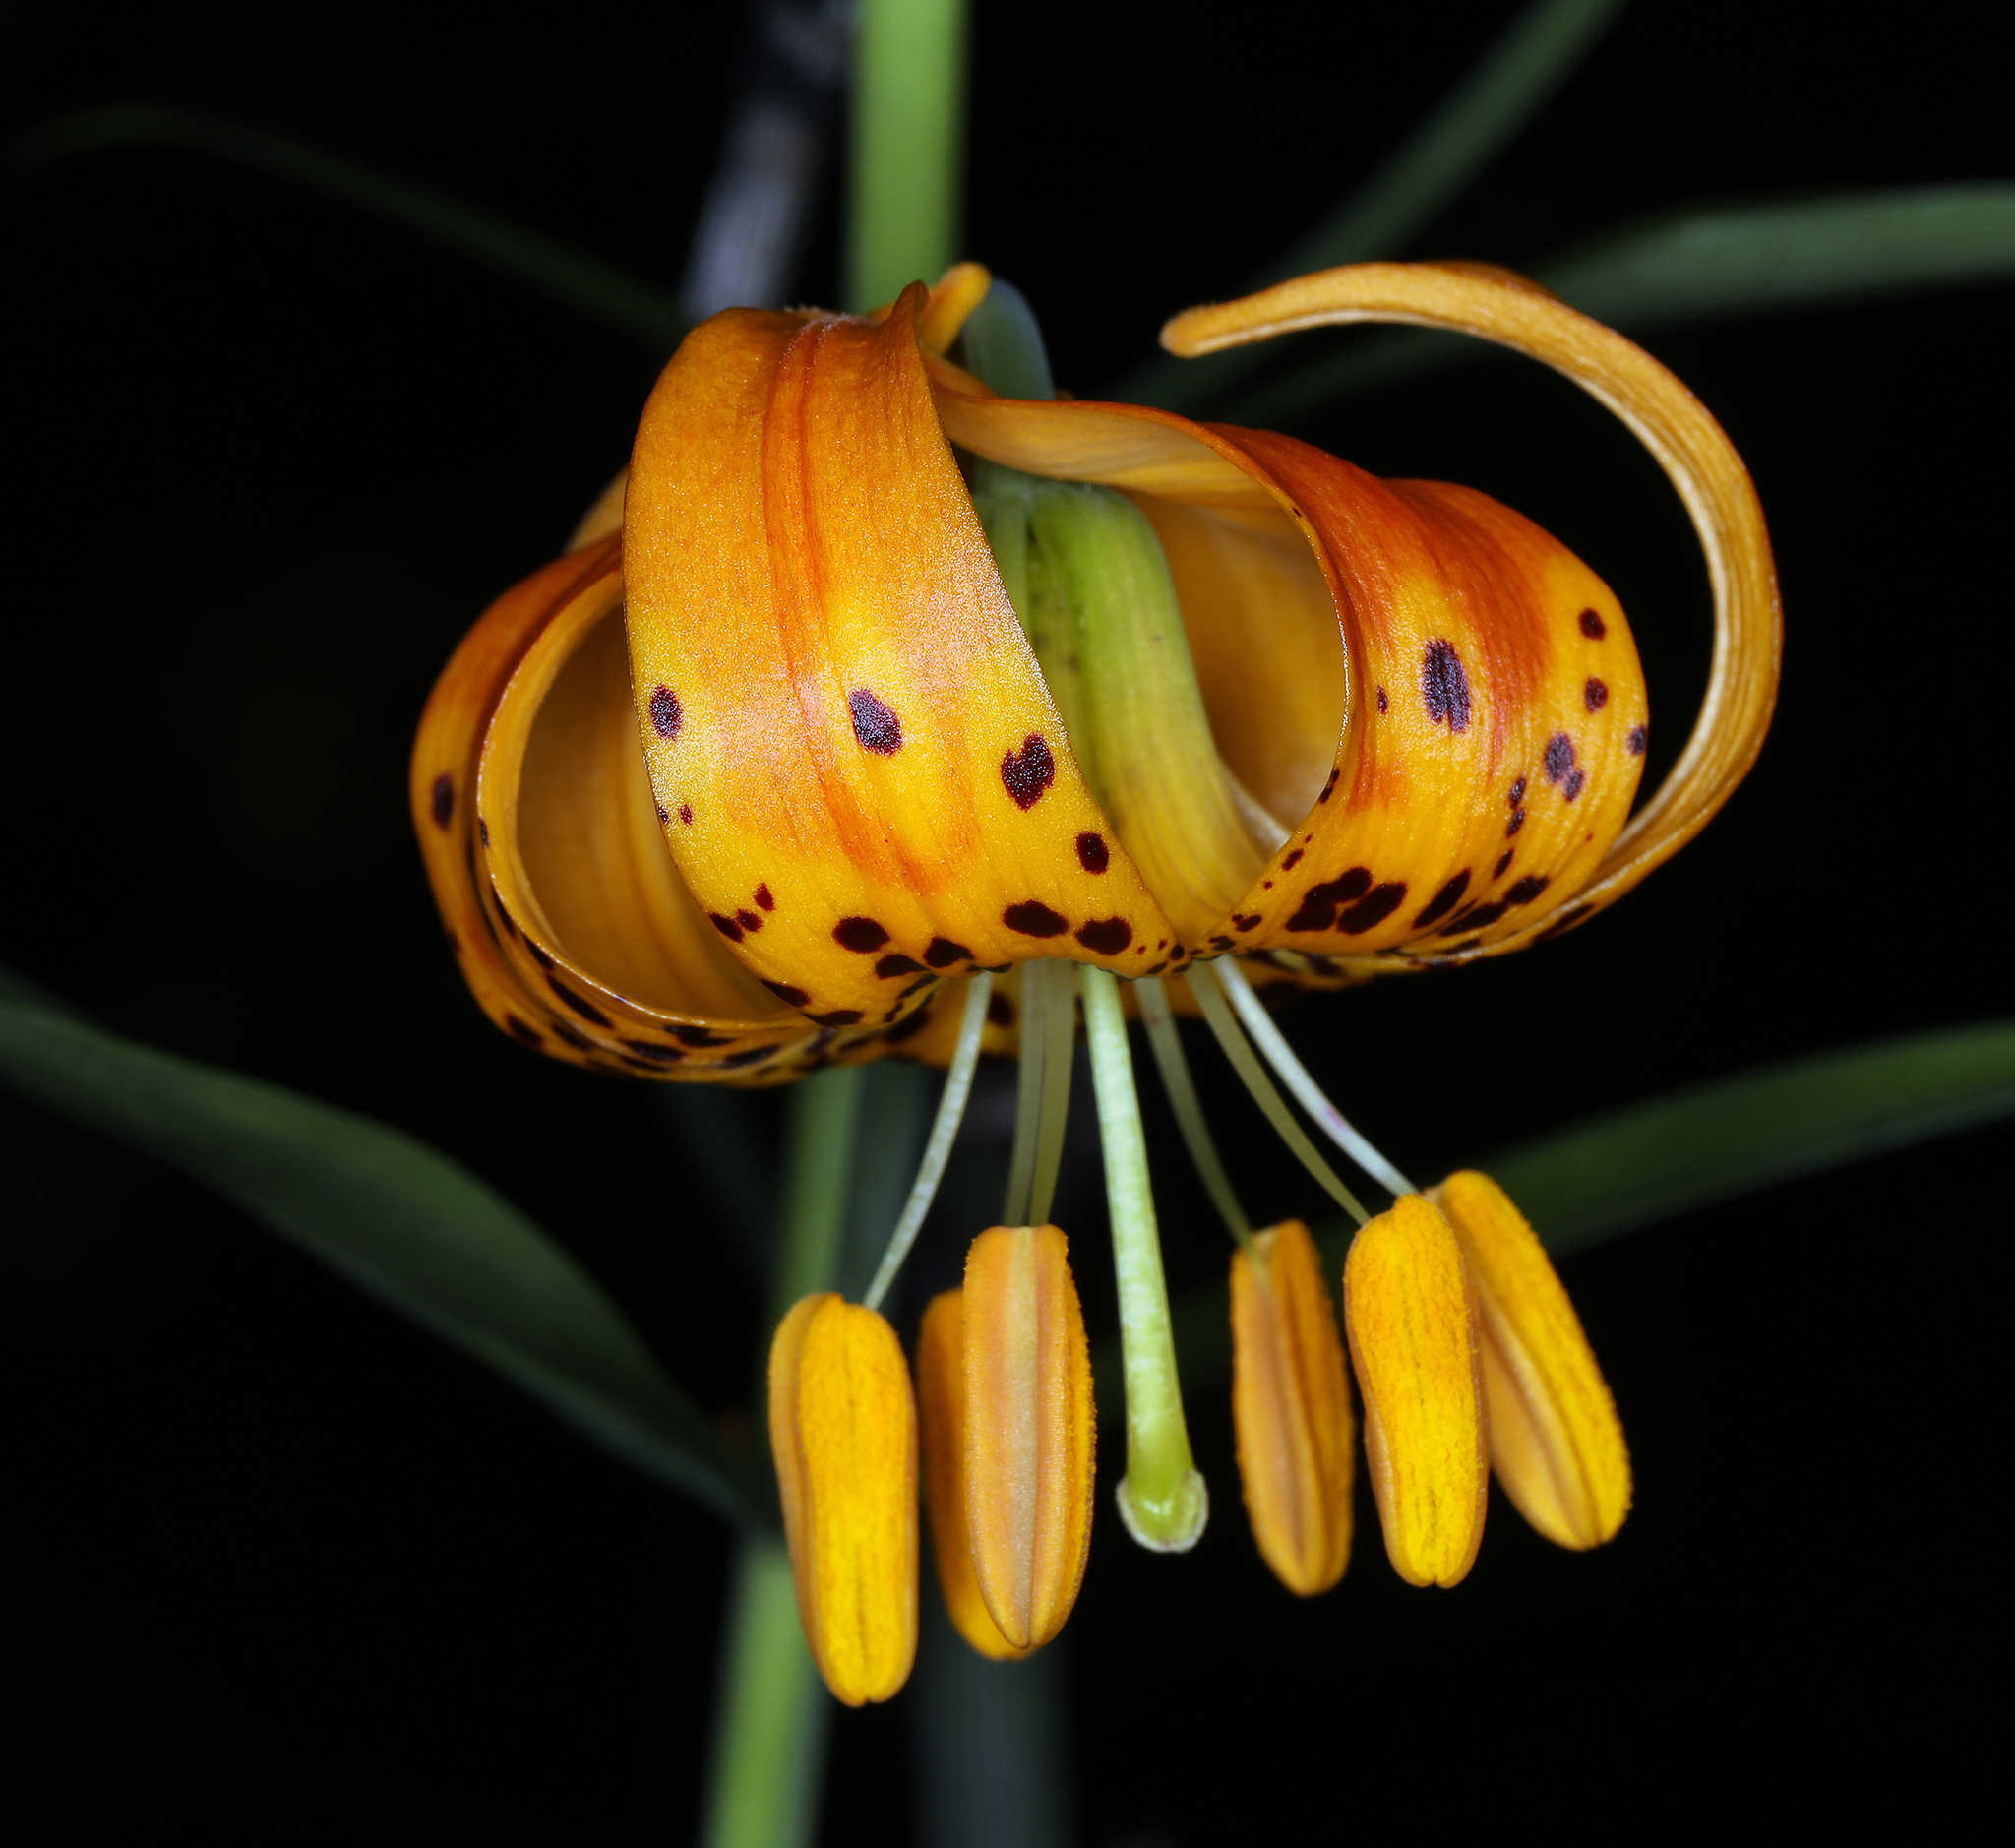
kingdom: Plantae
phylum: Tracheophyta
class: Liliopsida
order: Liliales
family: Liliaceae
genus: Lilium
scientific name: Lilium pardalinum
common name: Panther lily
